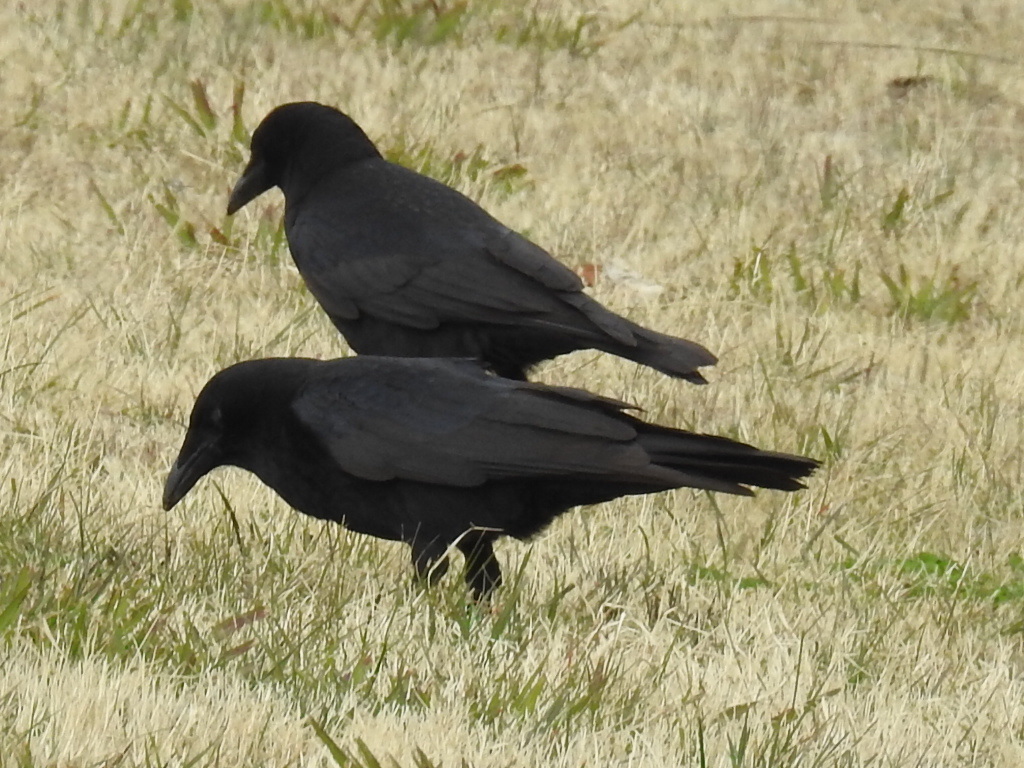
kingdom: Animalia
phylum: Chordata
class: Aves
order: Passeriformes
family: Corvidae
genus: Corvus
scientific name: Corvus brachyrhynchos
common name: American crow
